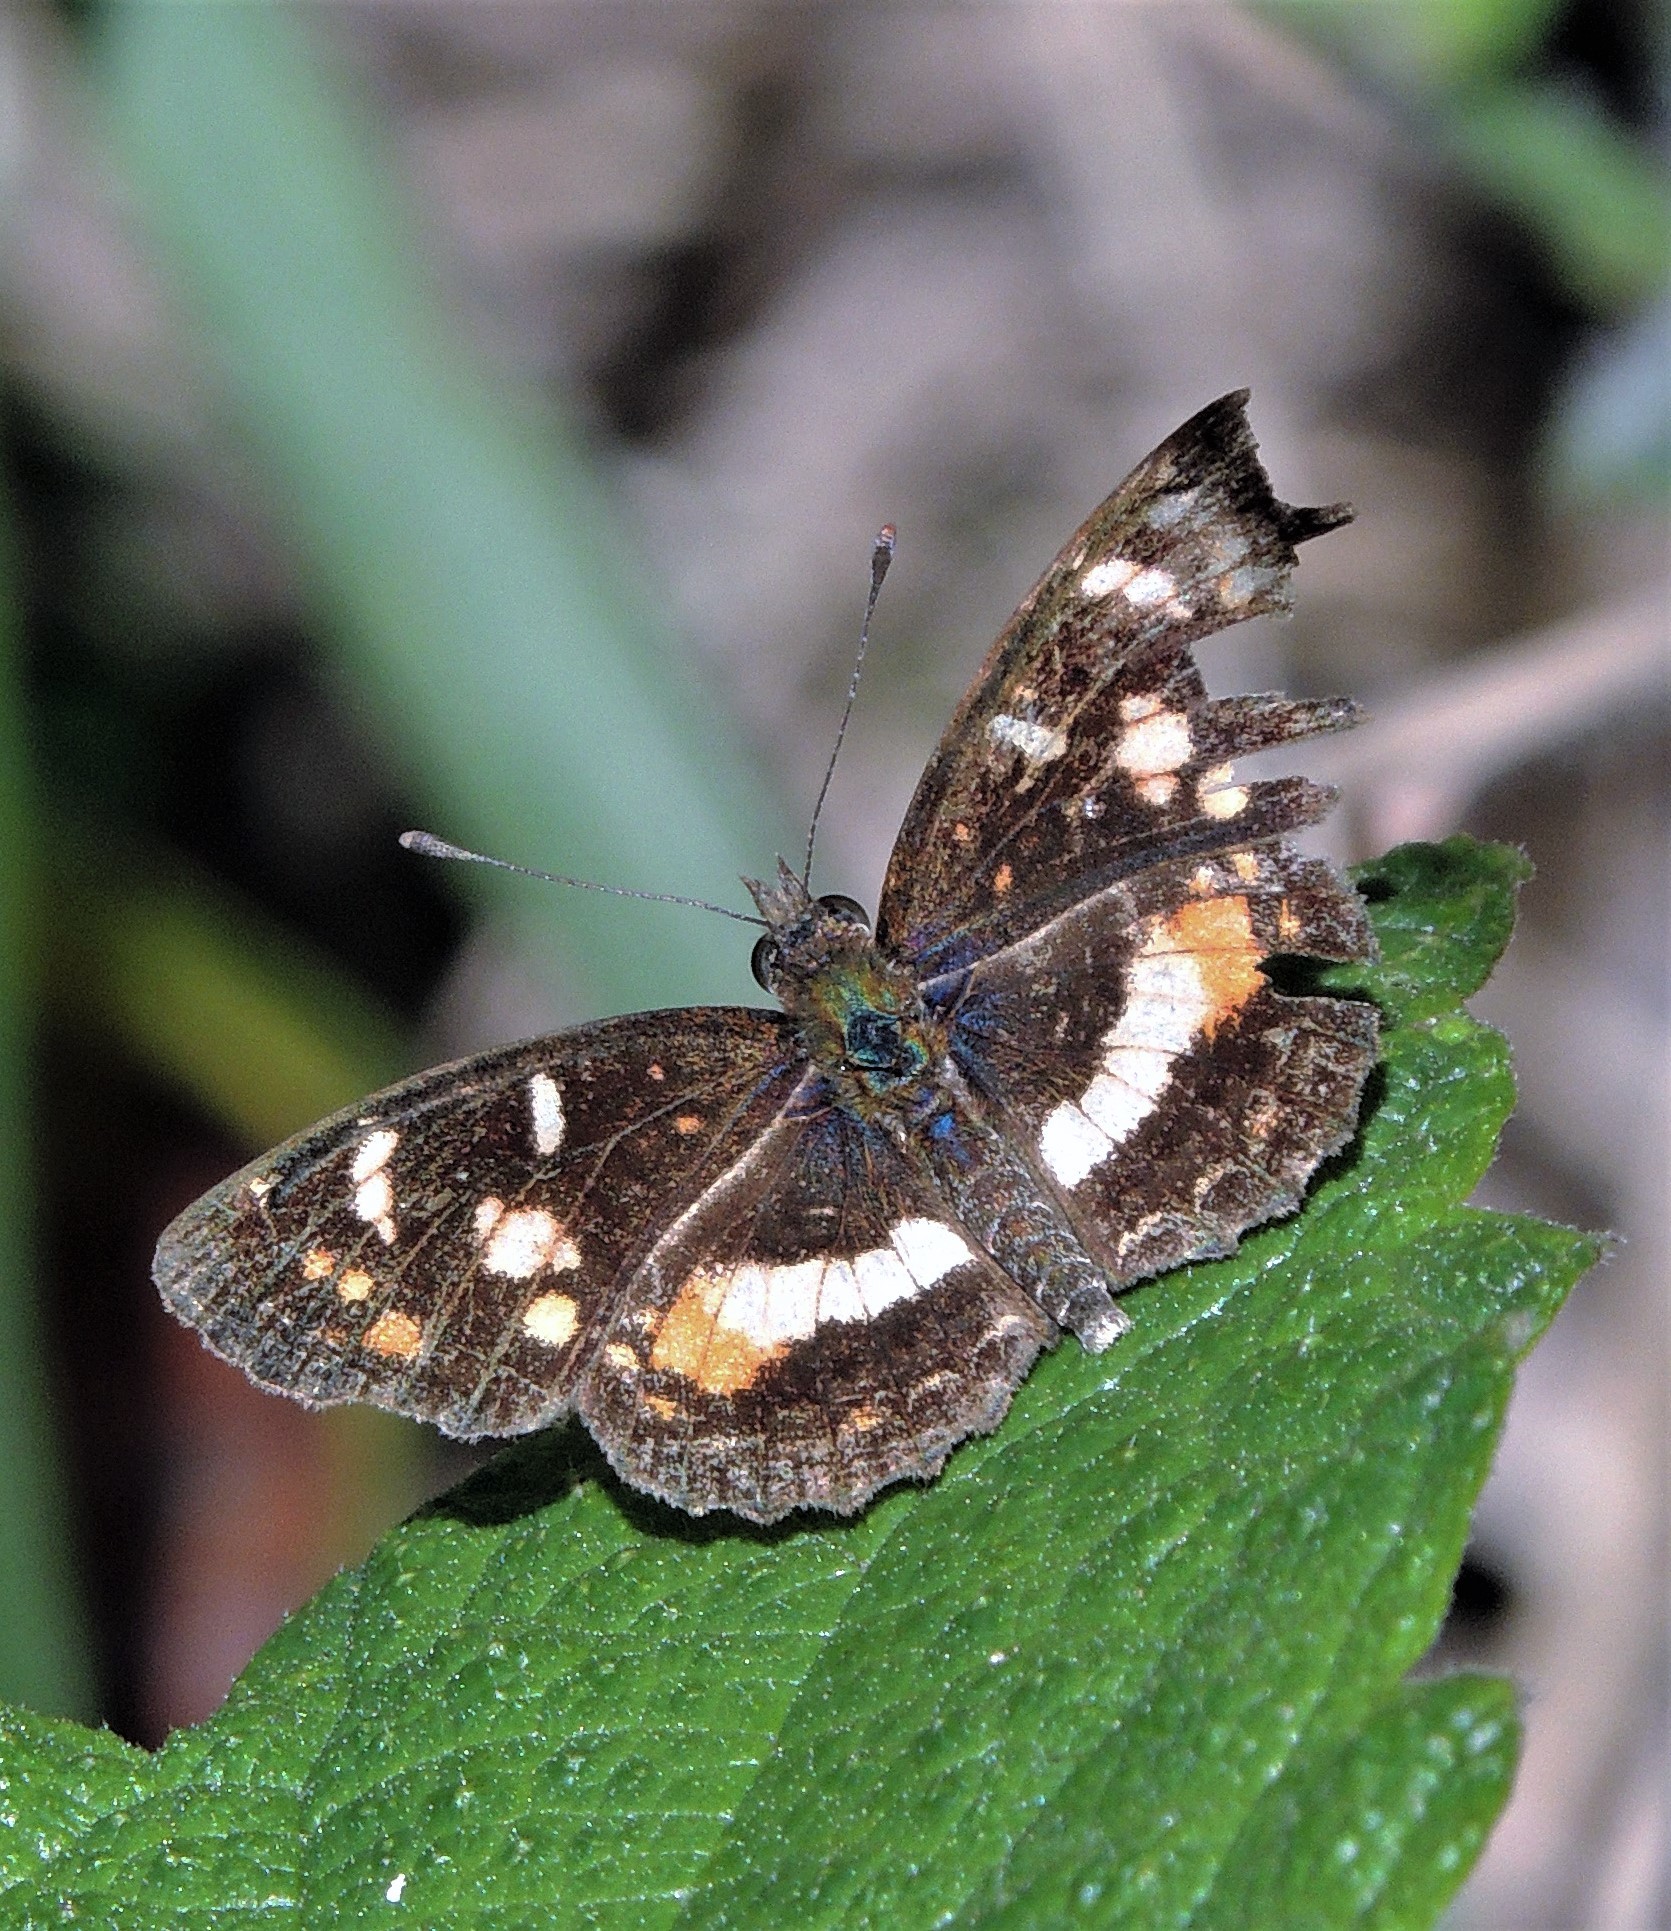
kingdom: Animalia
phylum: Arthropoda
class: Insecta
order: Lepidoptera
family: Nymphalidae
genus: Ortilia
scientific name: Ortilia orthia
